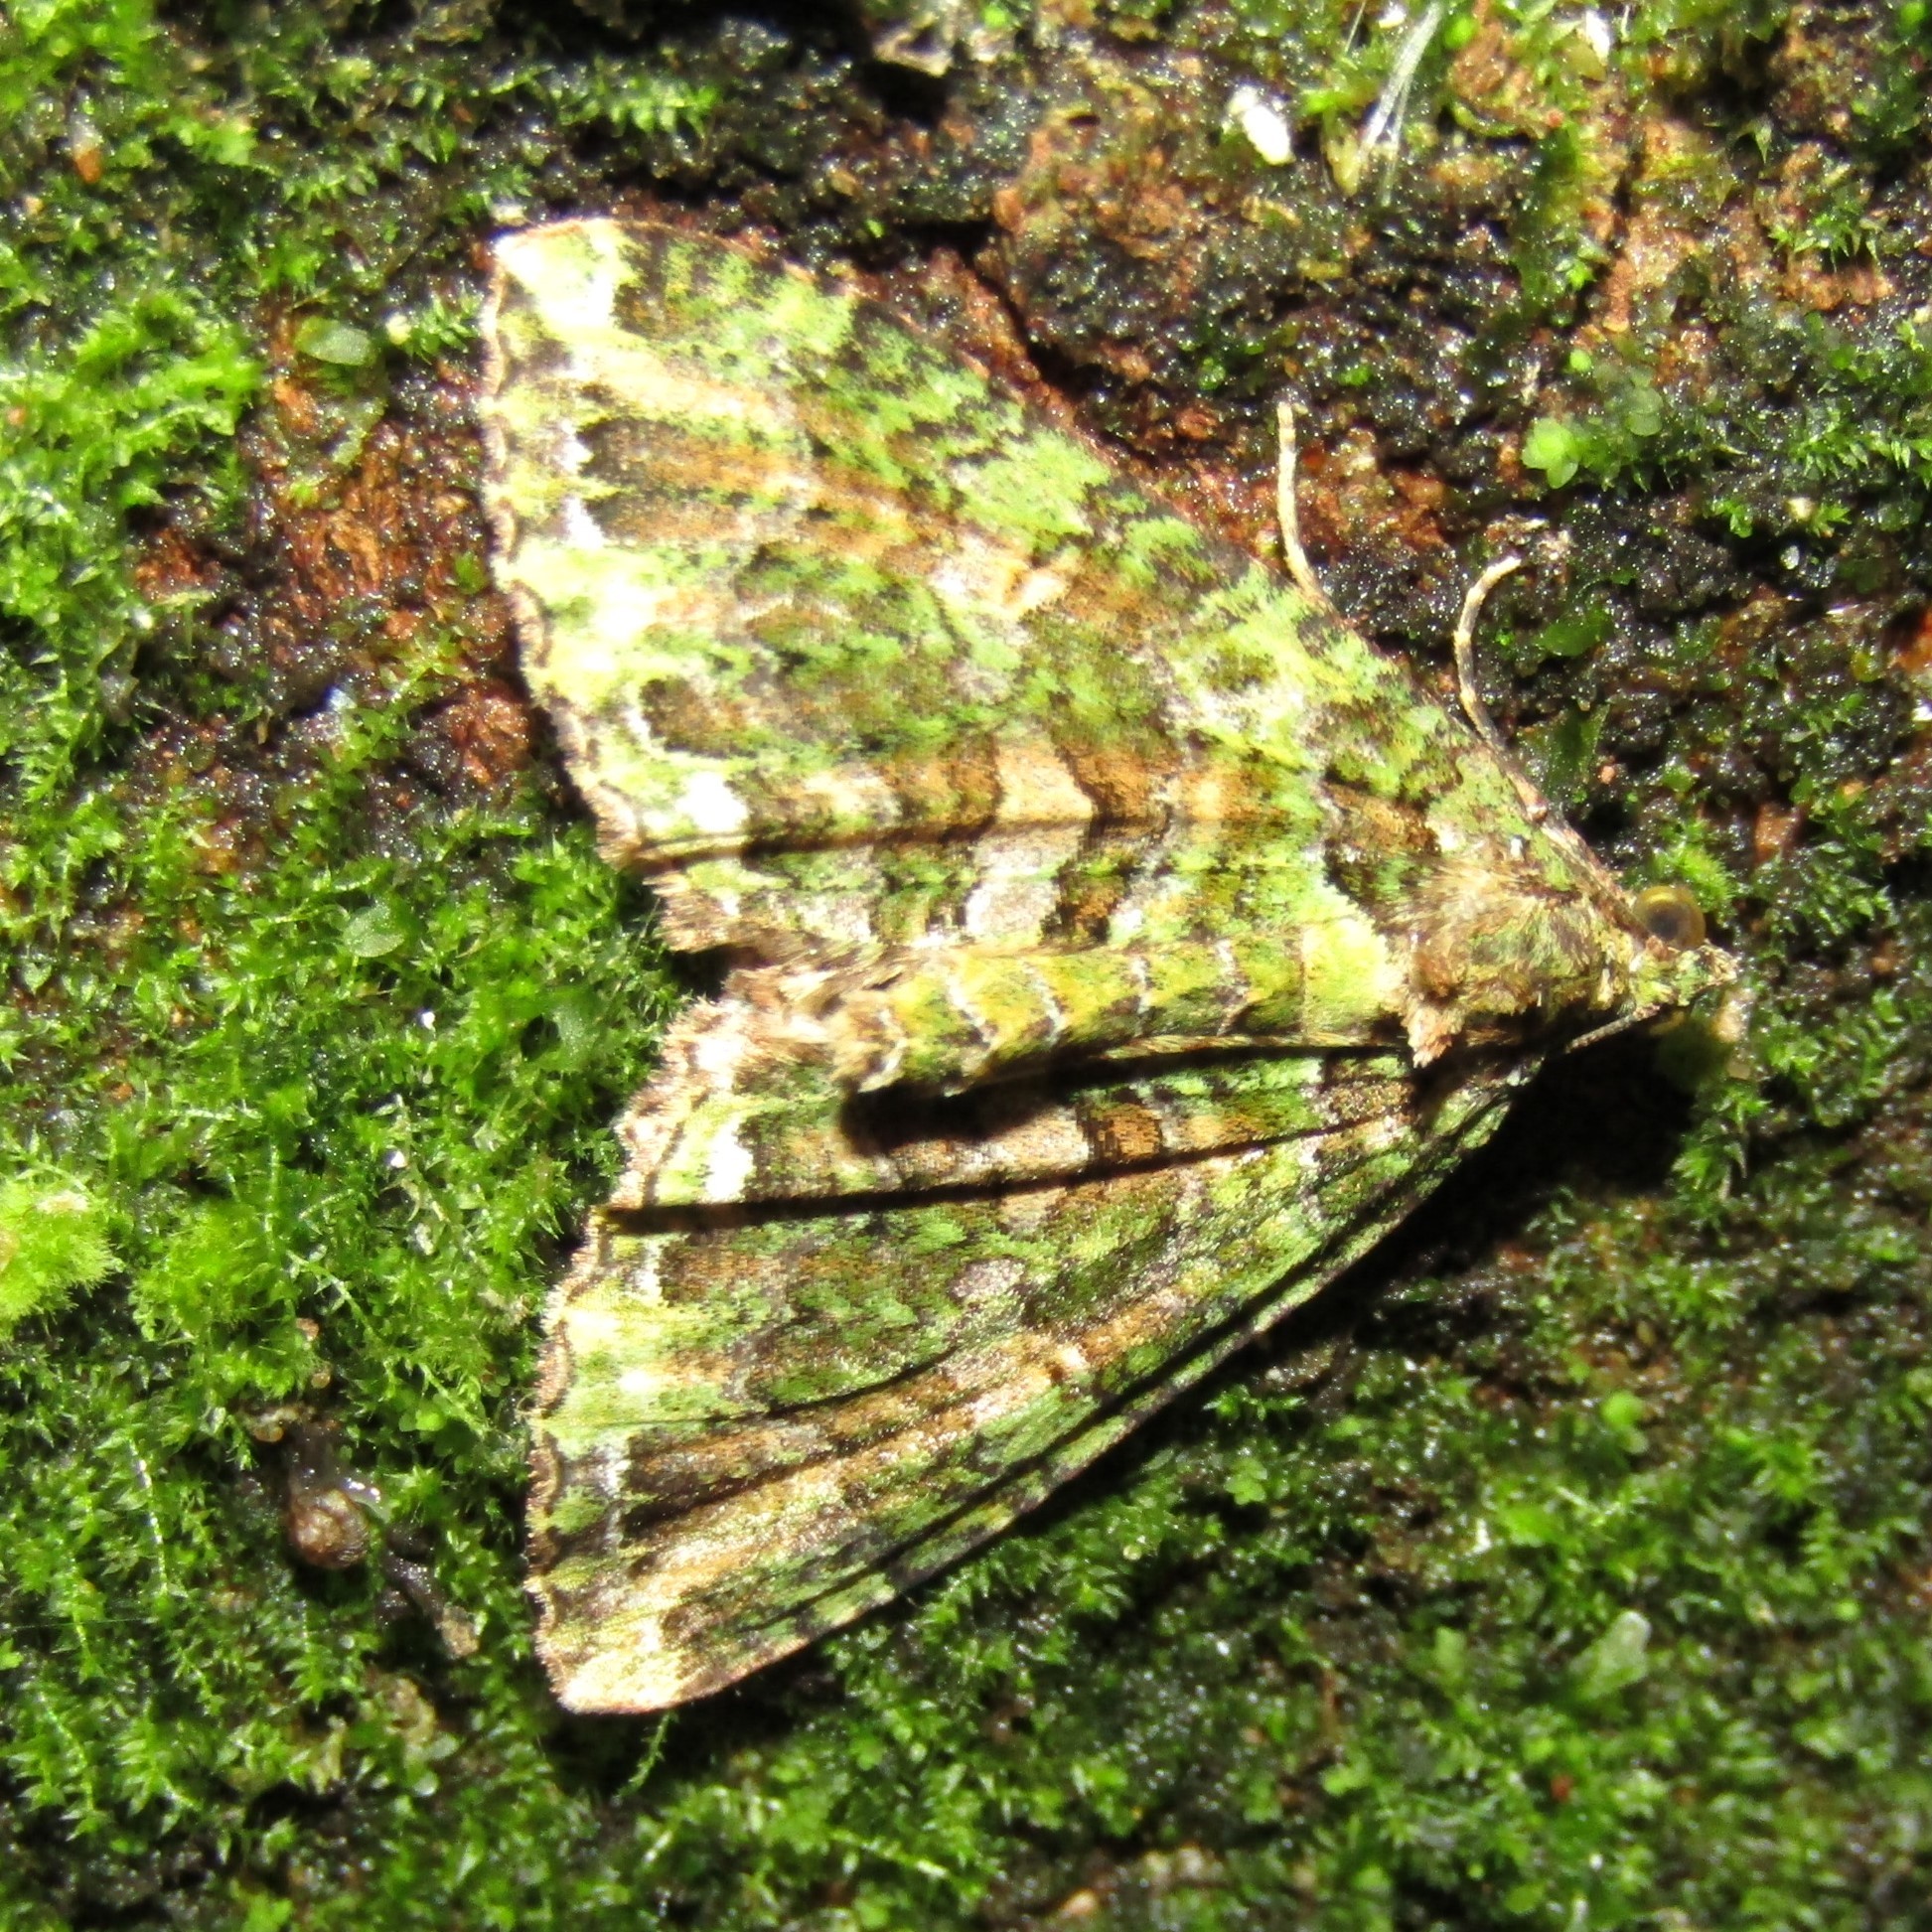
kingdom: Animalia
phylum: Arthropoda
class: Insecta
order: Lepidoptera
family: Geometridae
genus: Austrocidaria
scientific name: Austrocidaria similata
